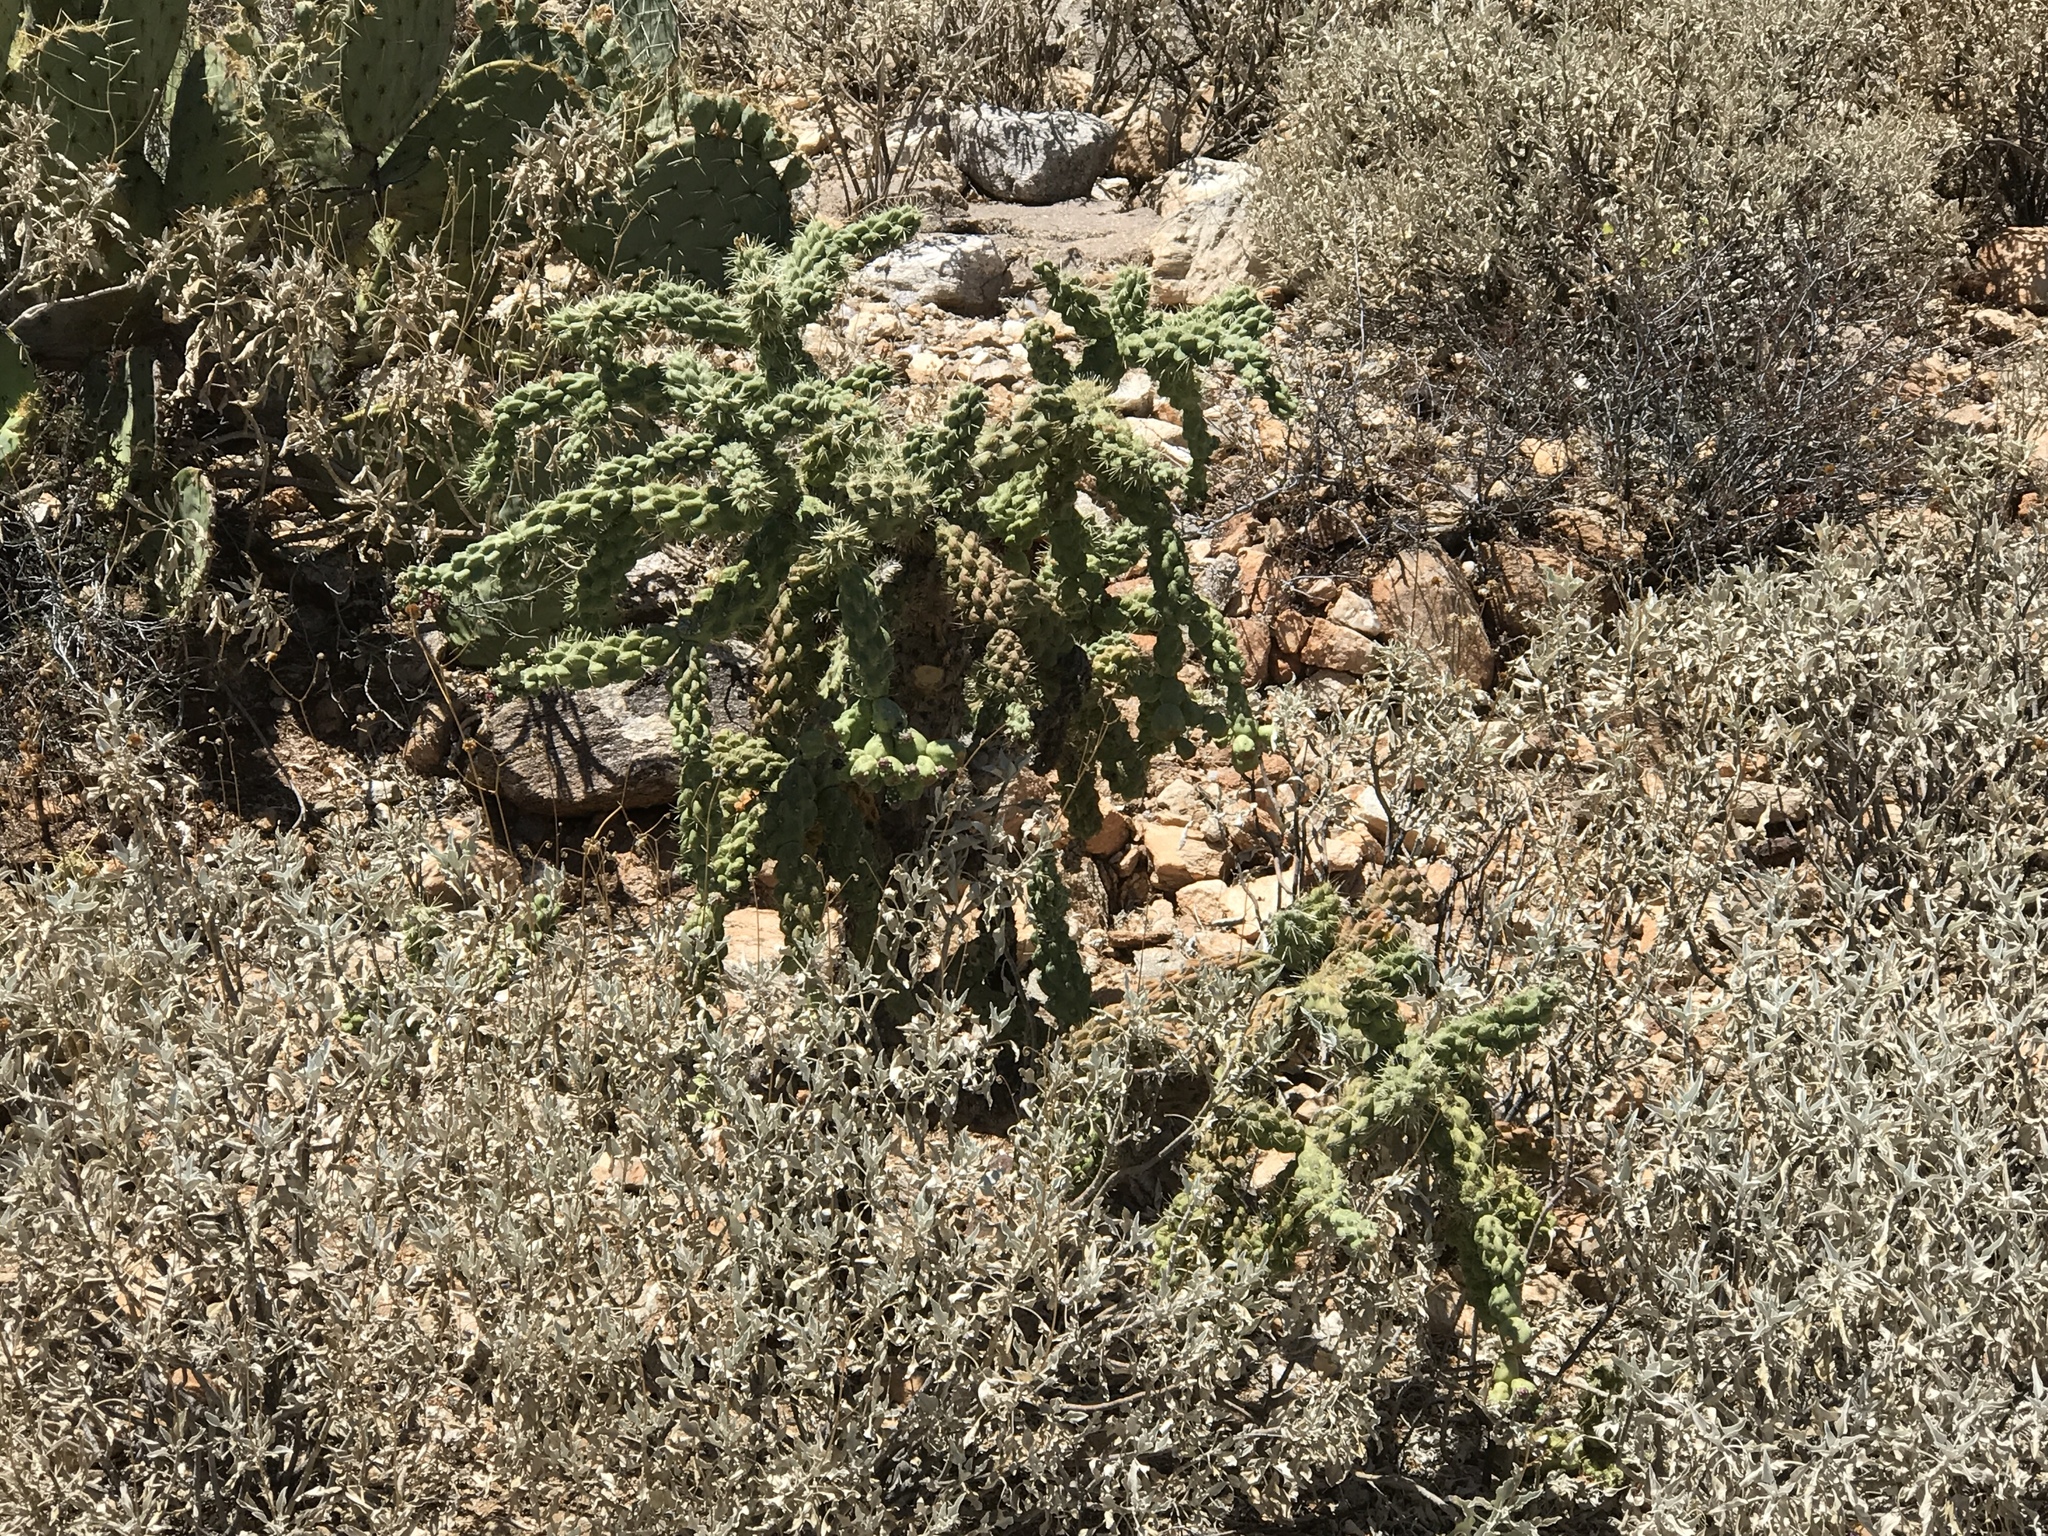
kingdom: Plantae
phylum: Tracheophyta
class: Magnoliopsida
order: Caryophyllales
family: Cactaceae
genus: Cylindropuntia
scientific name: Cylindropuntia fulgida
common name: Jumping cholla
